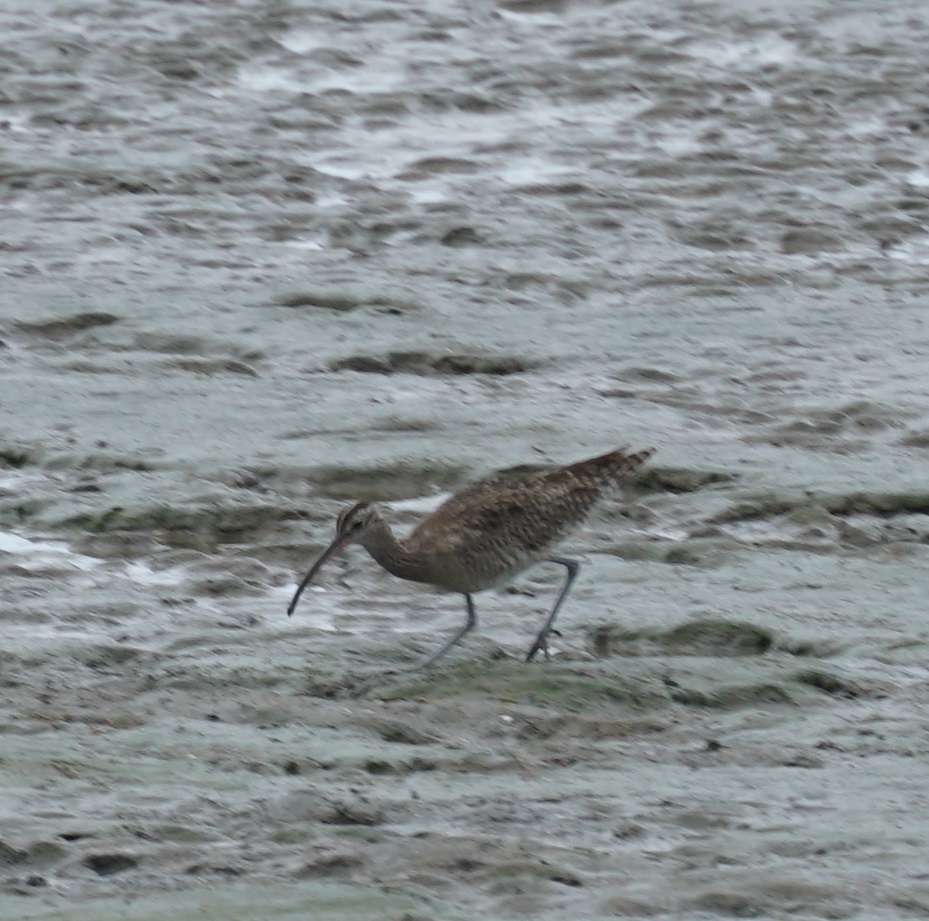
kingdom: Animalia
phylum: Chordata
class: Aves
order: Charadriiformes
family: Scolopacidae
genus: Numenius
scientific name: Numenius phaeopus
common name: Whimbrel
